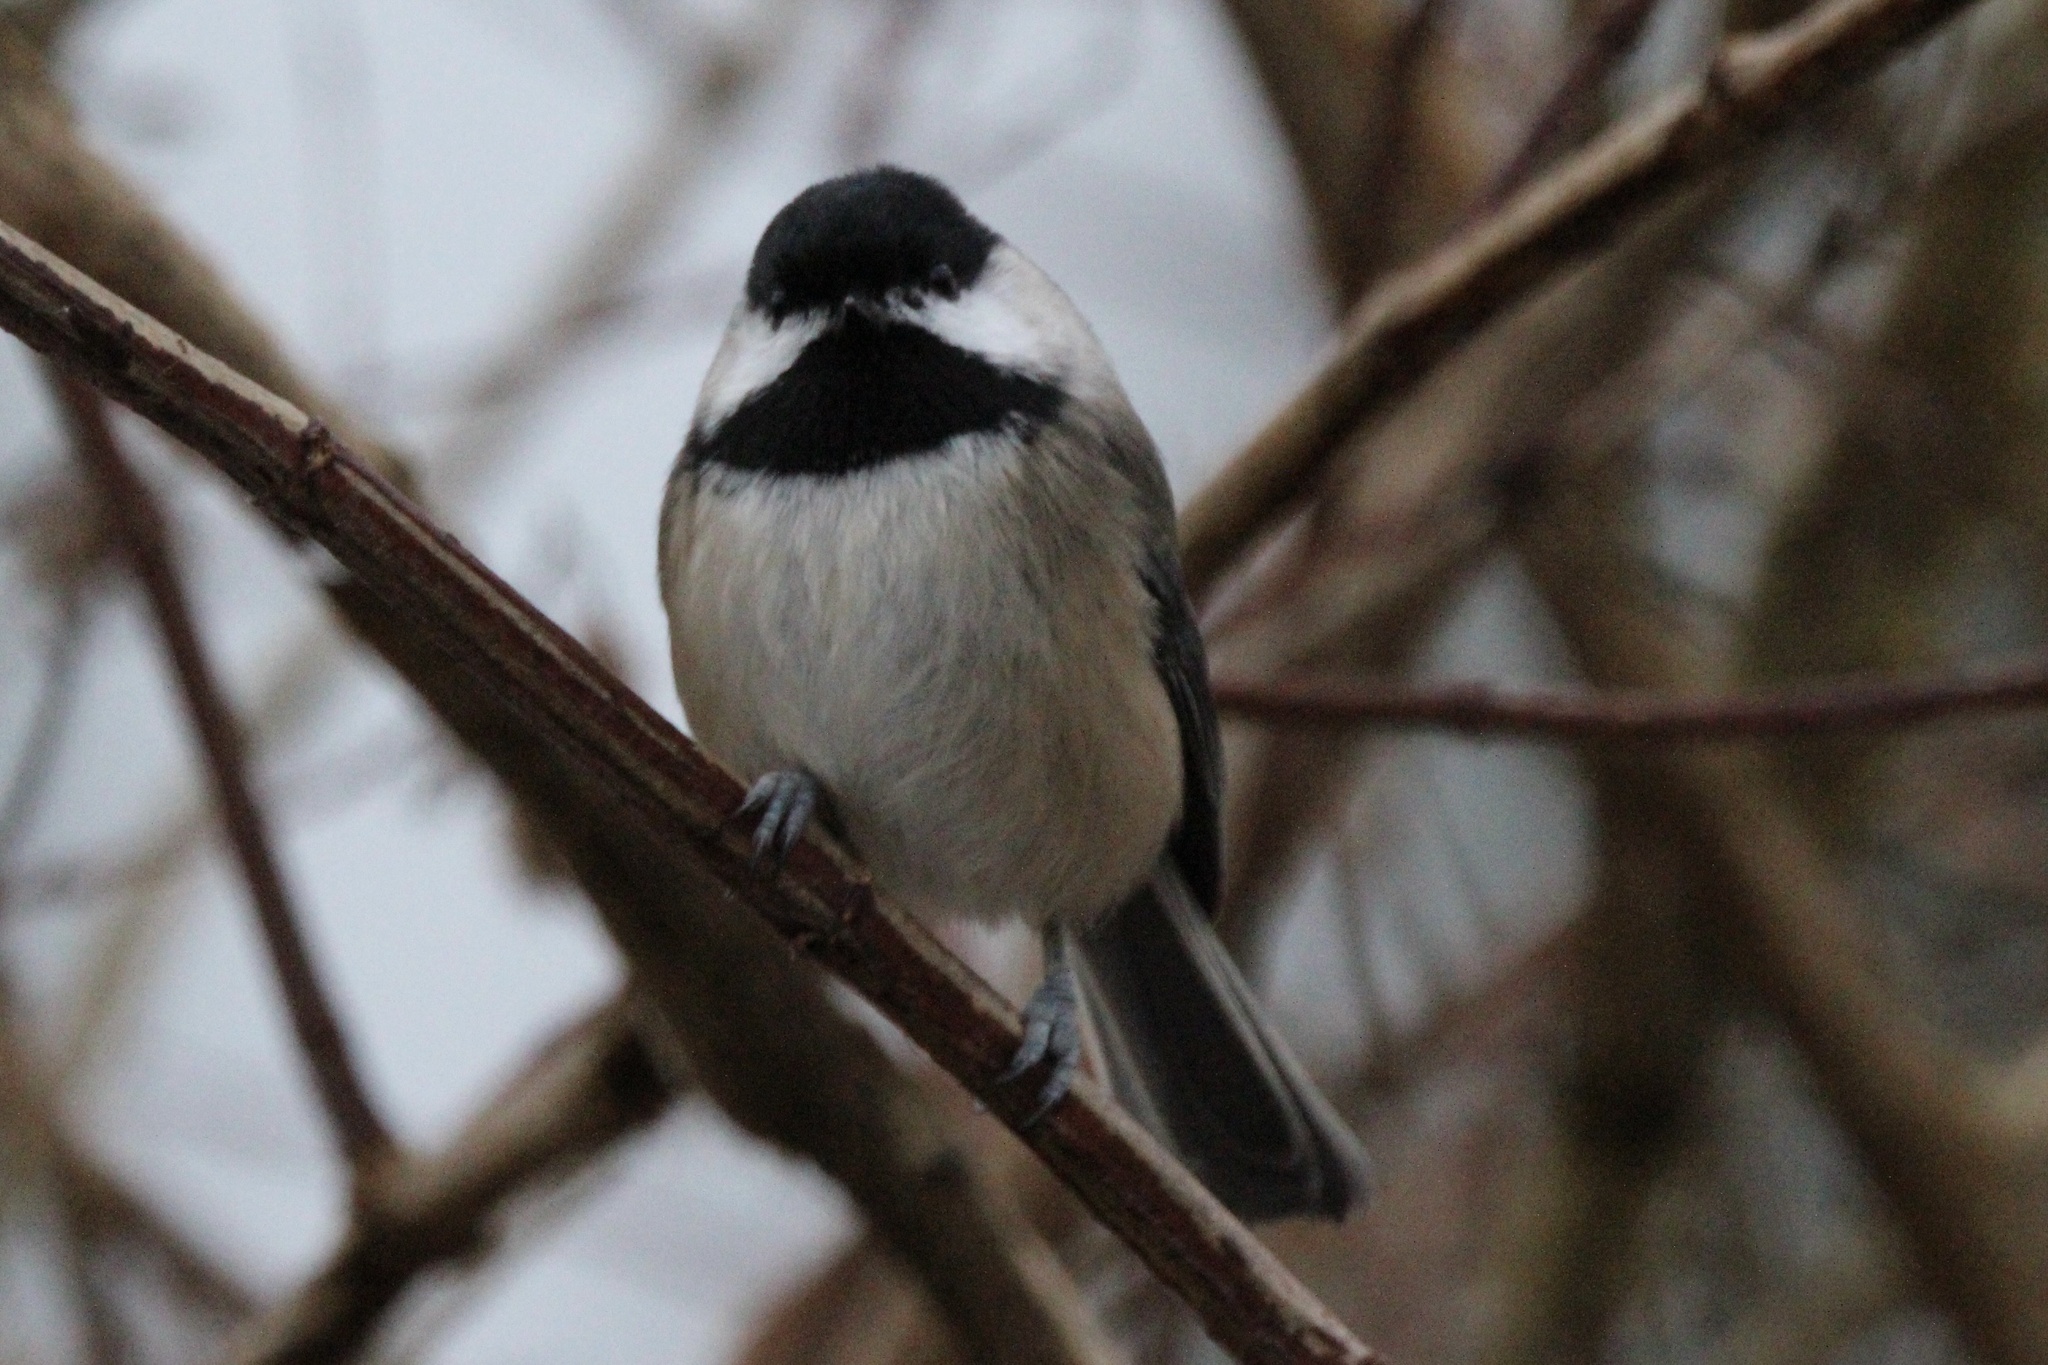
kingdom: Animalia
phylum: Chordata
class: Aves
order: Passeriformes
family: Paridae
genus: Poecile
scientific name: Poecile atricapillus
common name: Black-capped chickadee
